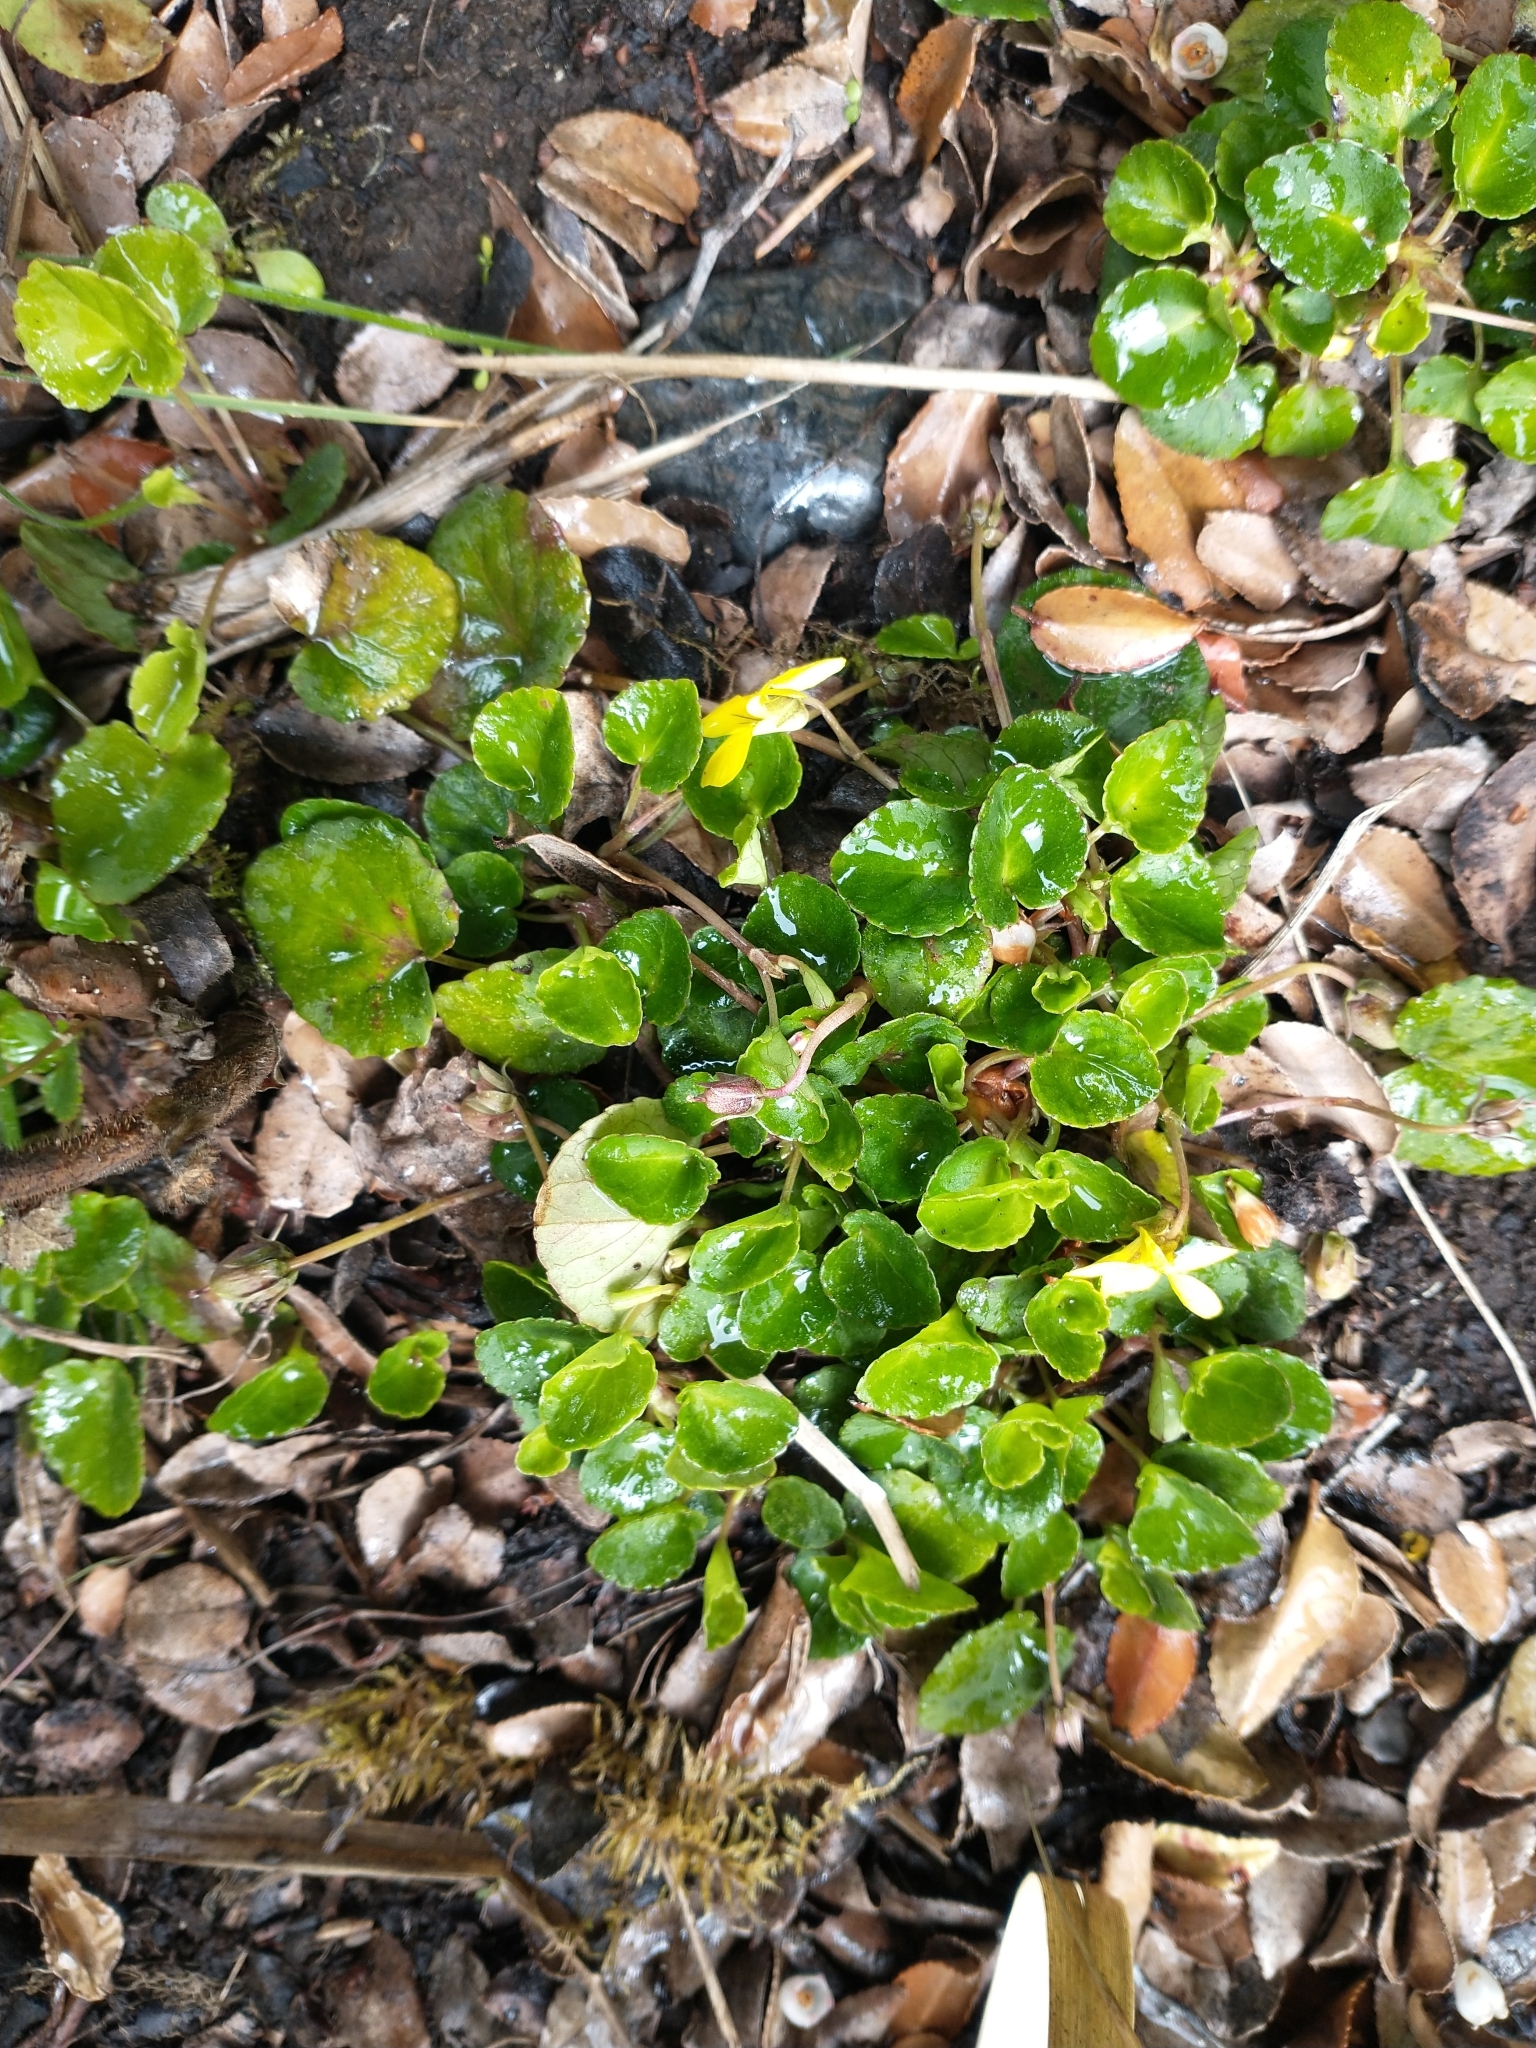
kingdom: Plantae
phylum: Tracheophyta
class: Magnoliopsida
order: Malpighiales
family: Violaceae
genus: Viola
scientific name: Viola sempervirens
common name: Evergreen violet
